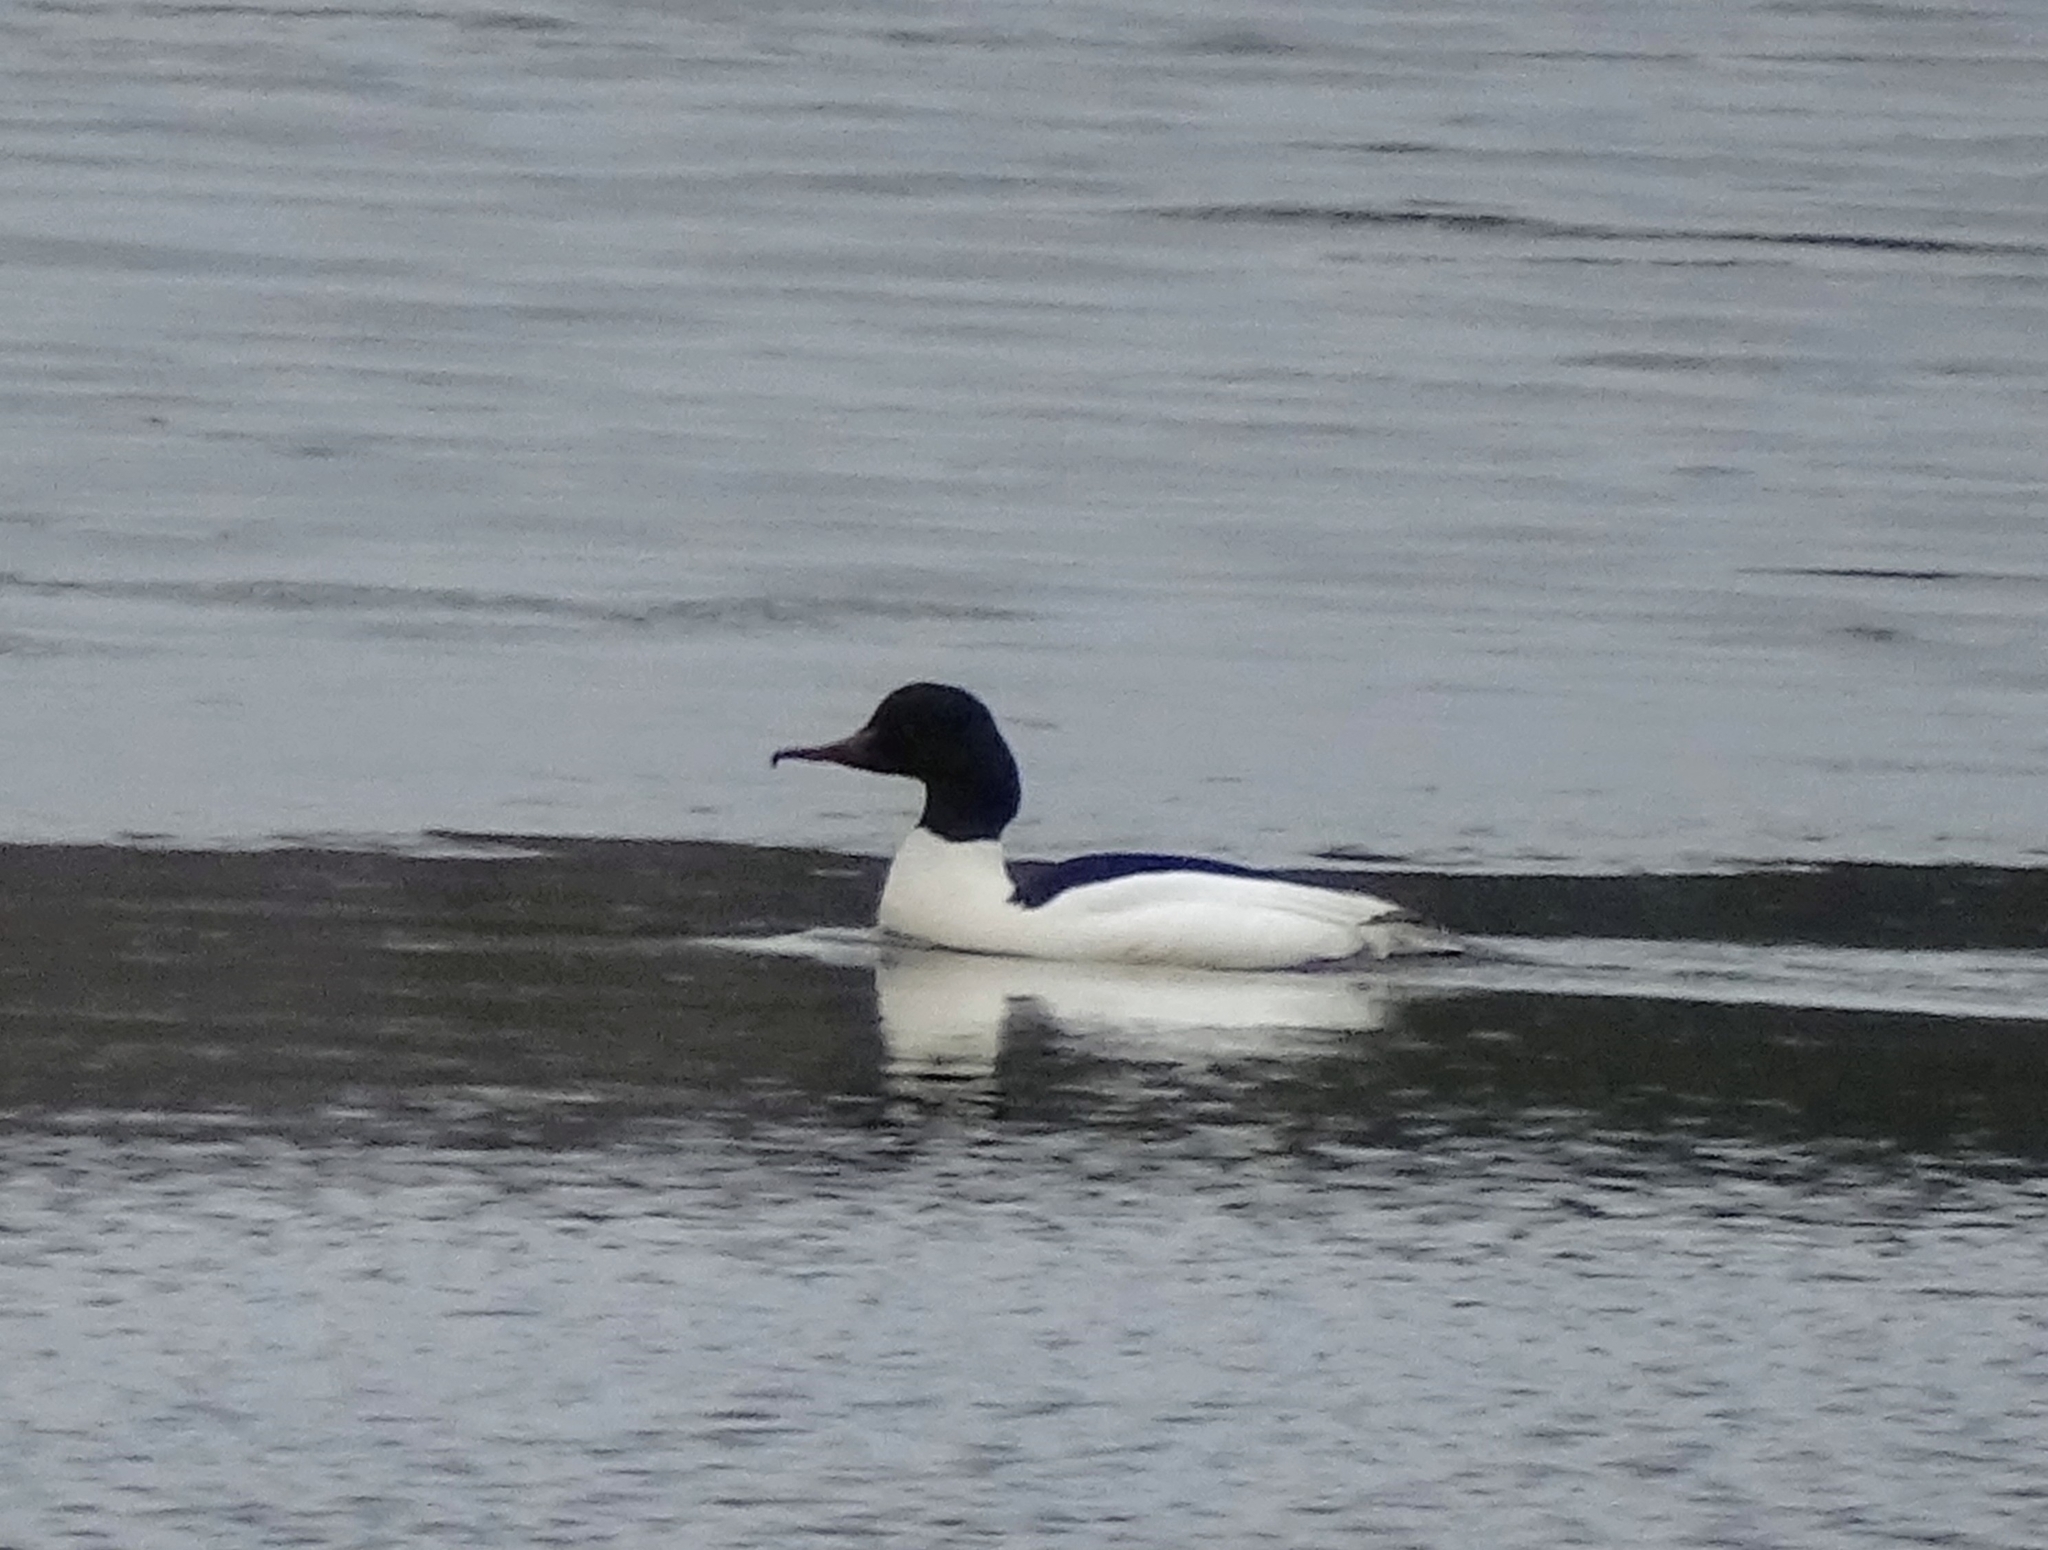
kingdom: Animalia
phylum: Chordata
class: Aves
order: Anseriformes
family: Anatidae
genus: Mergus
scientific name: Mergus merganser
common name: Common merganser
